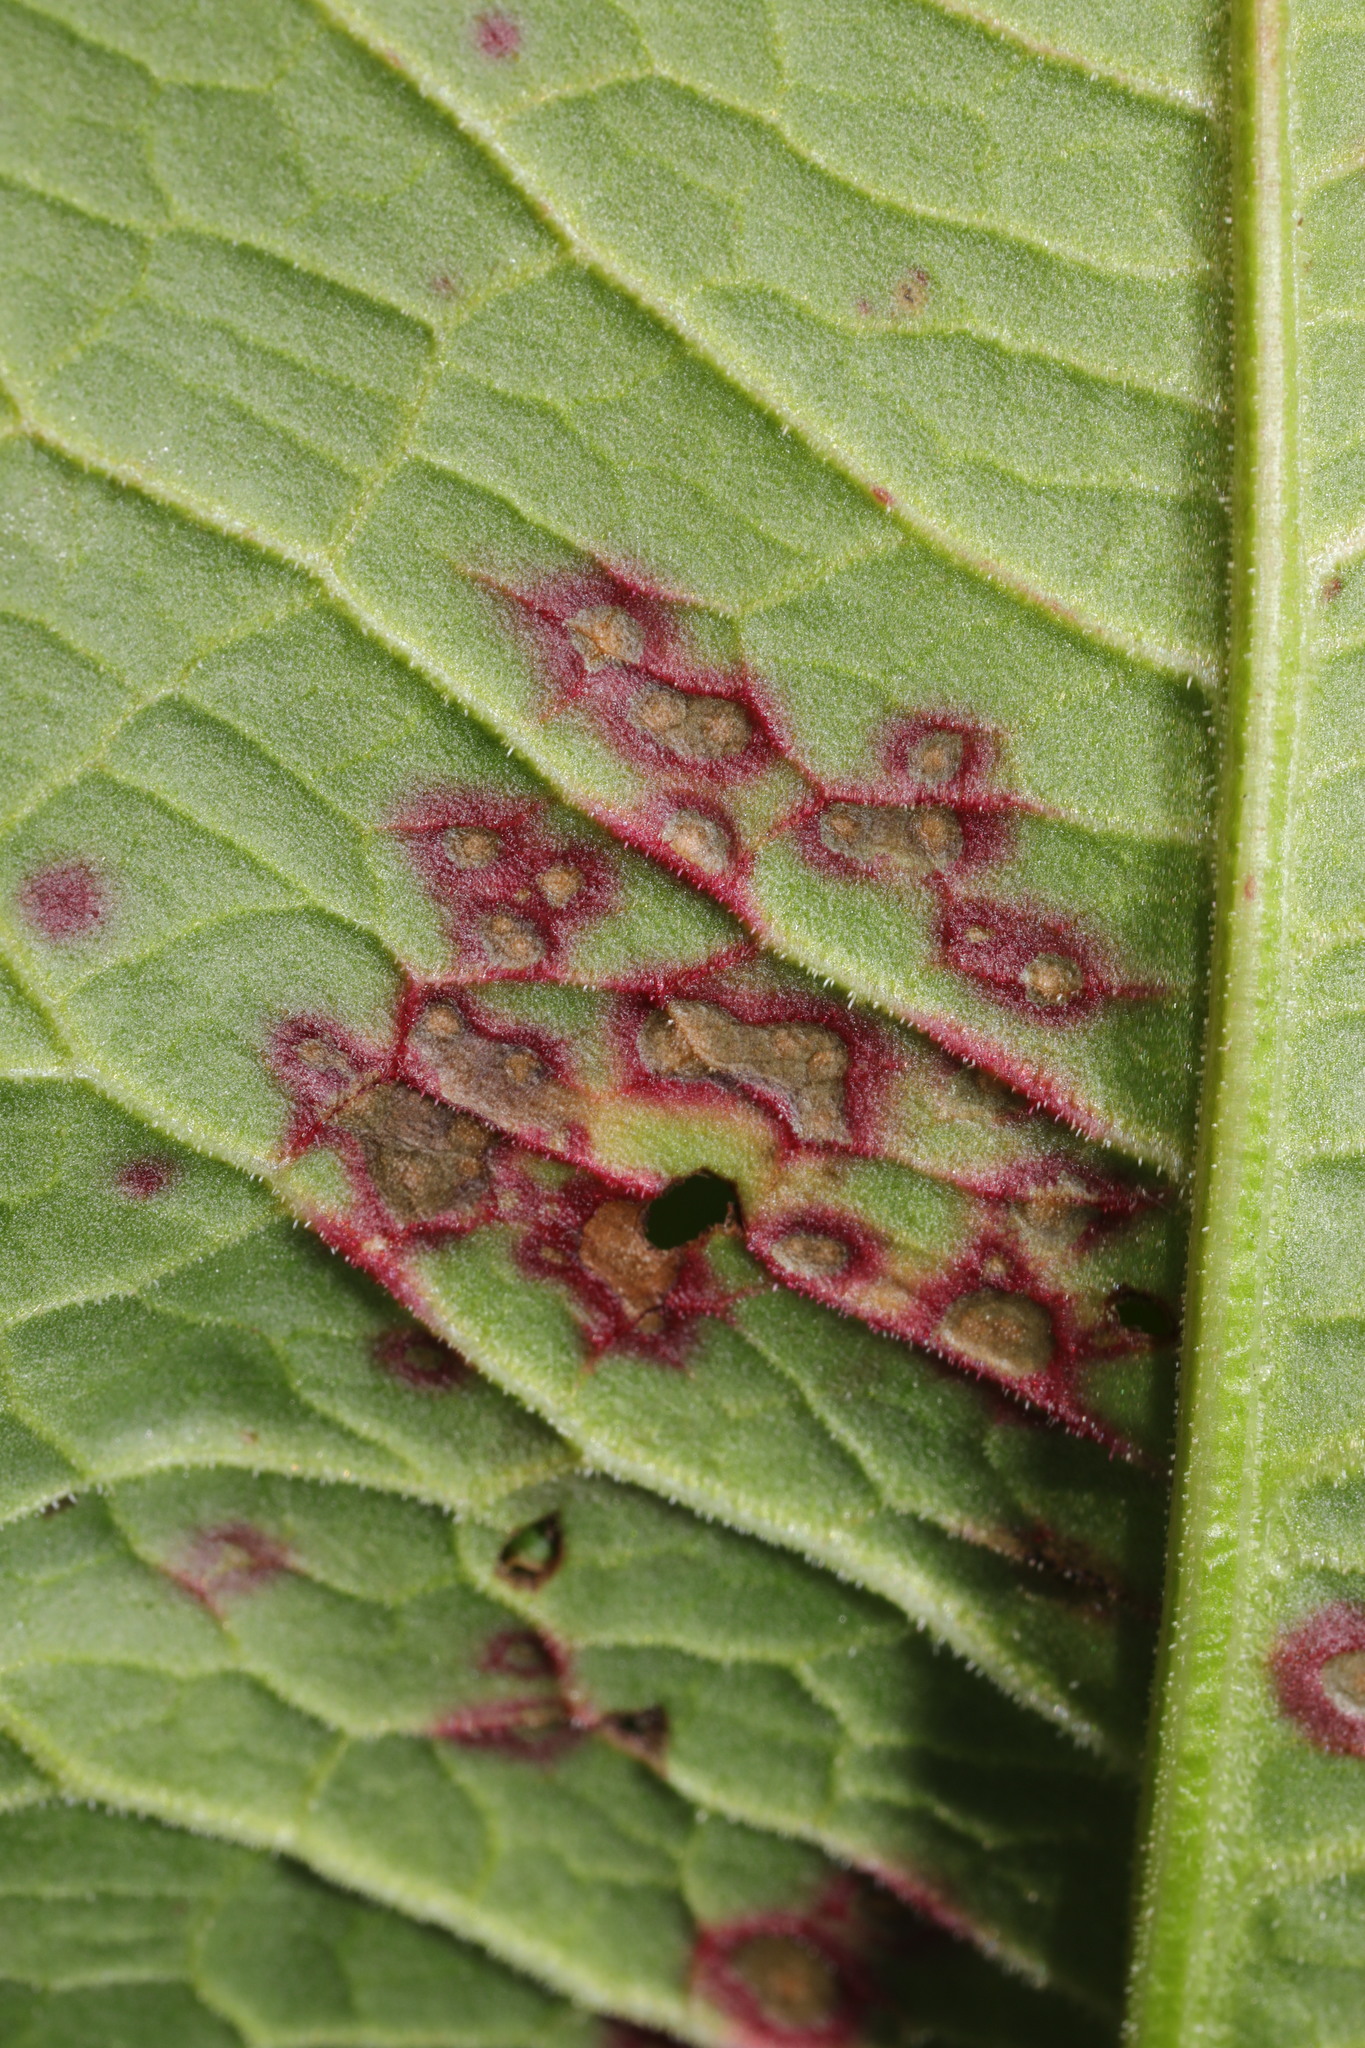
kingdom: Fungi
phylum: Ascomycota
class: Dothideomycetes
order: Mycosphaerellales
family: Mycosphaerellaceae
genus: Ramularia
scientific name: Ramularia rubella
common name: Red dock spot
